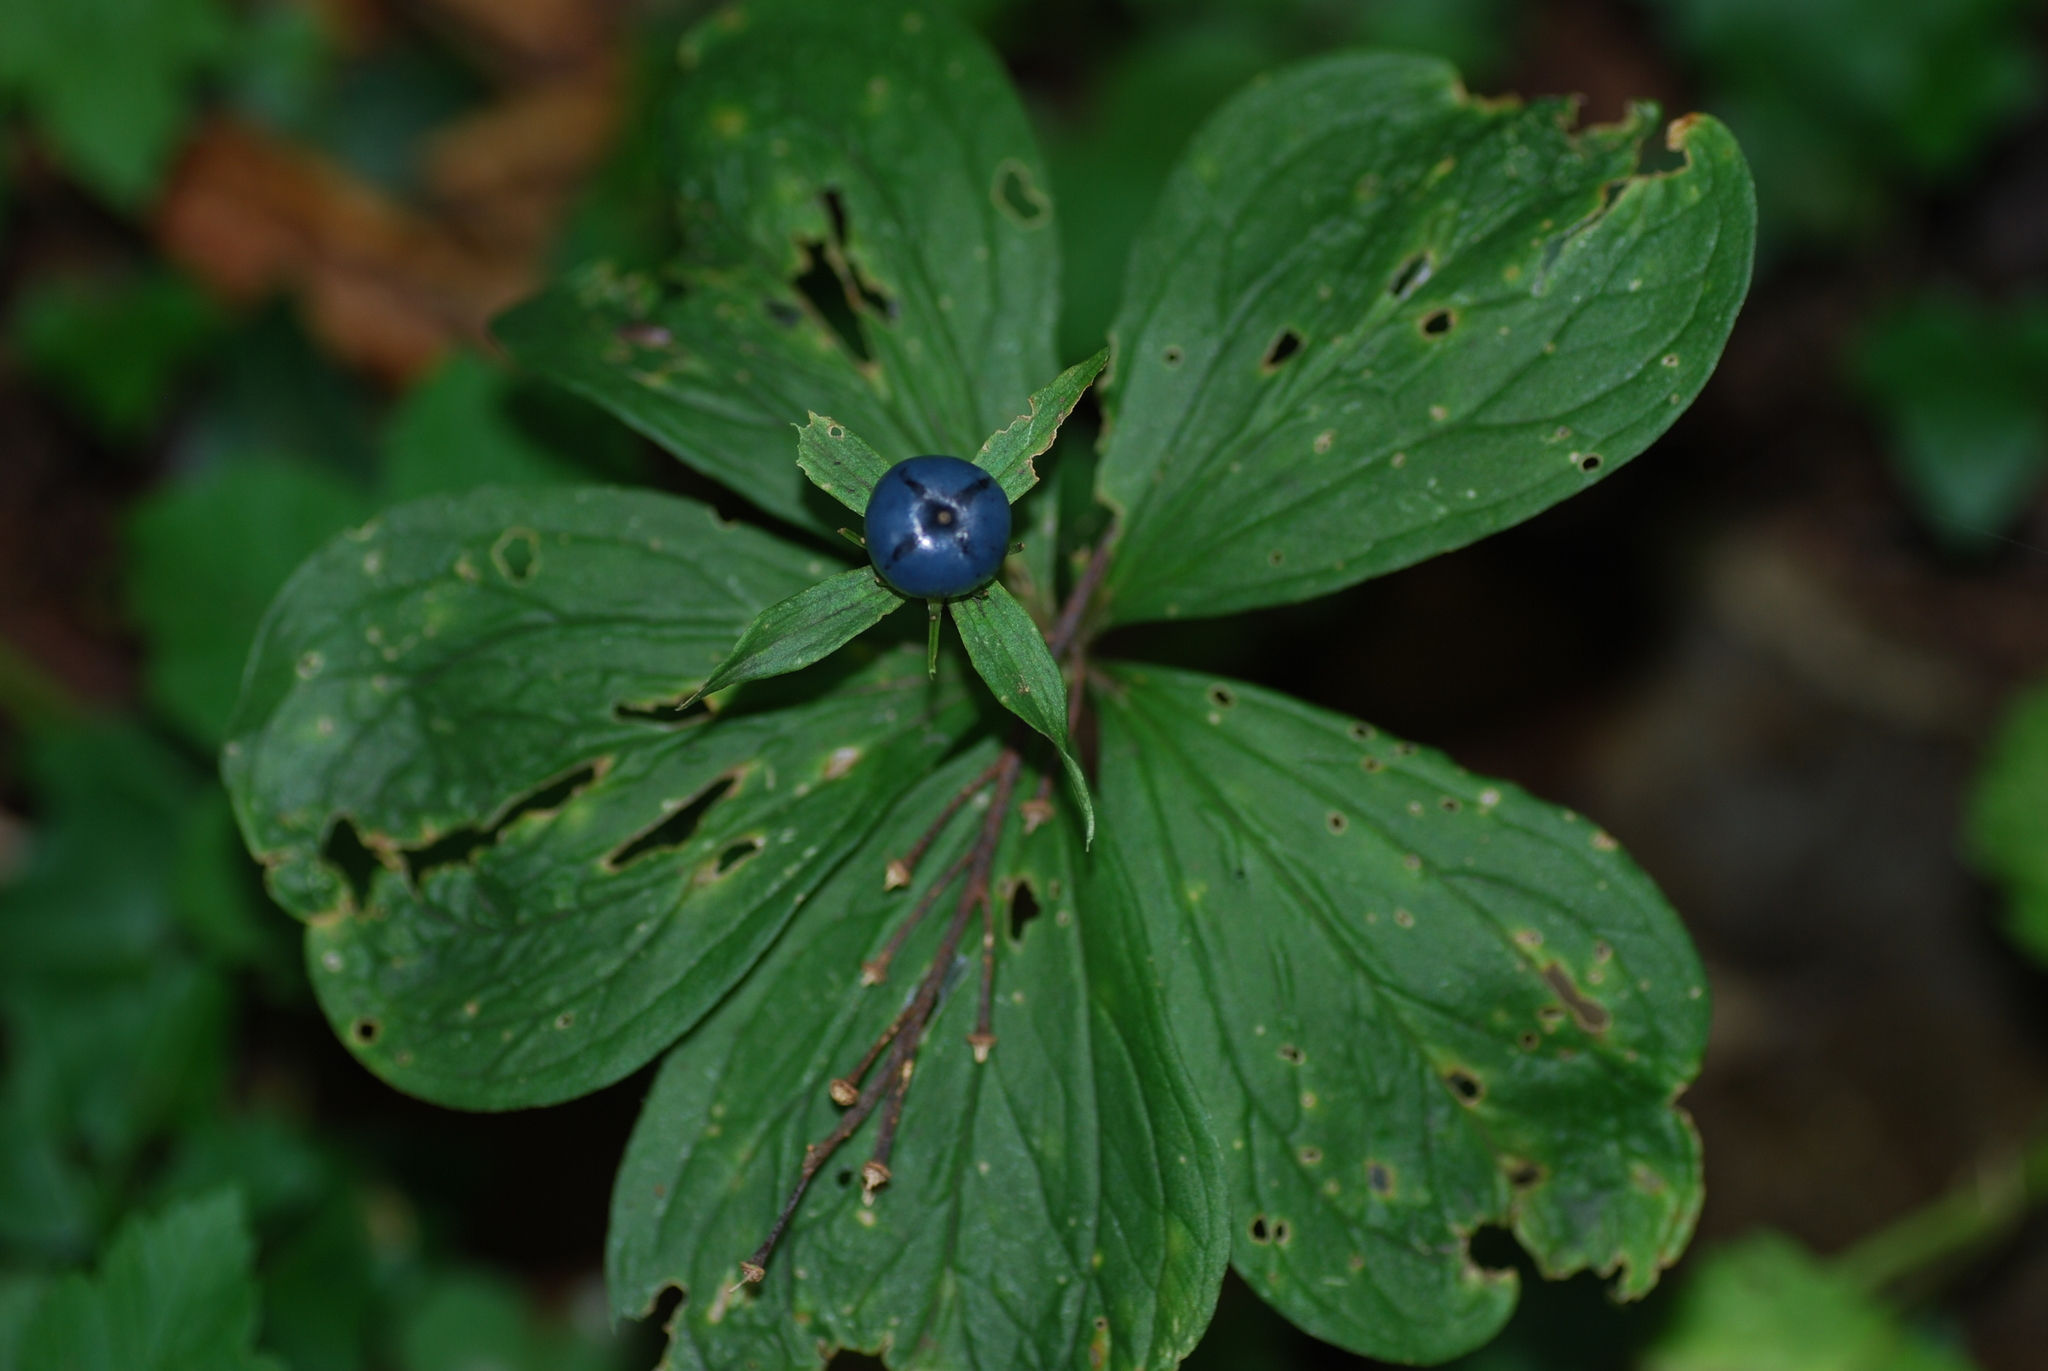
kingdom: Plantae
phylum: Tracheophyta
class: Liliopsida
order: Liliales
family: Melanthiaceae
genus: Paris
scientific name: Paris quadrifolia
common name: Herb-paris
